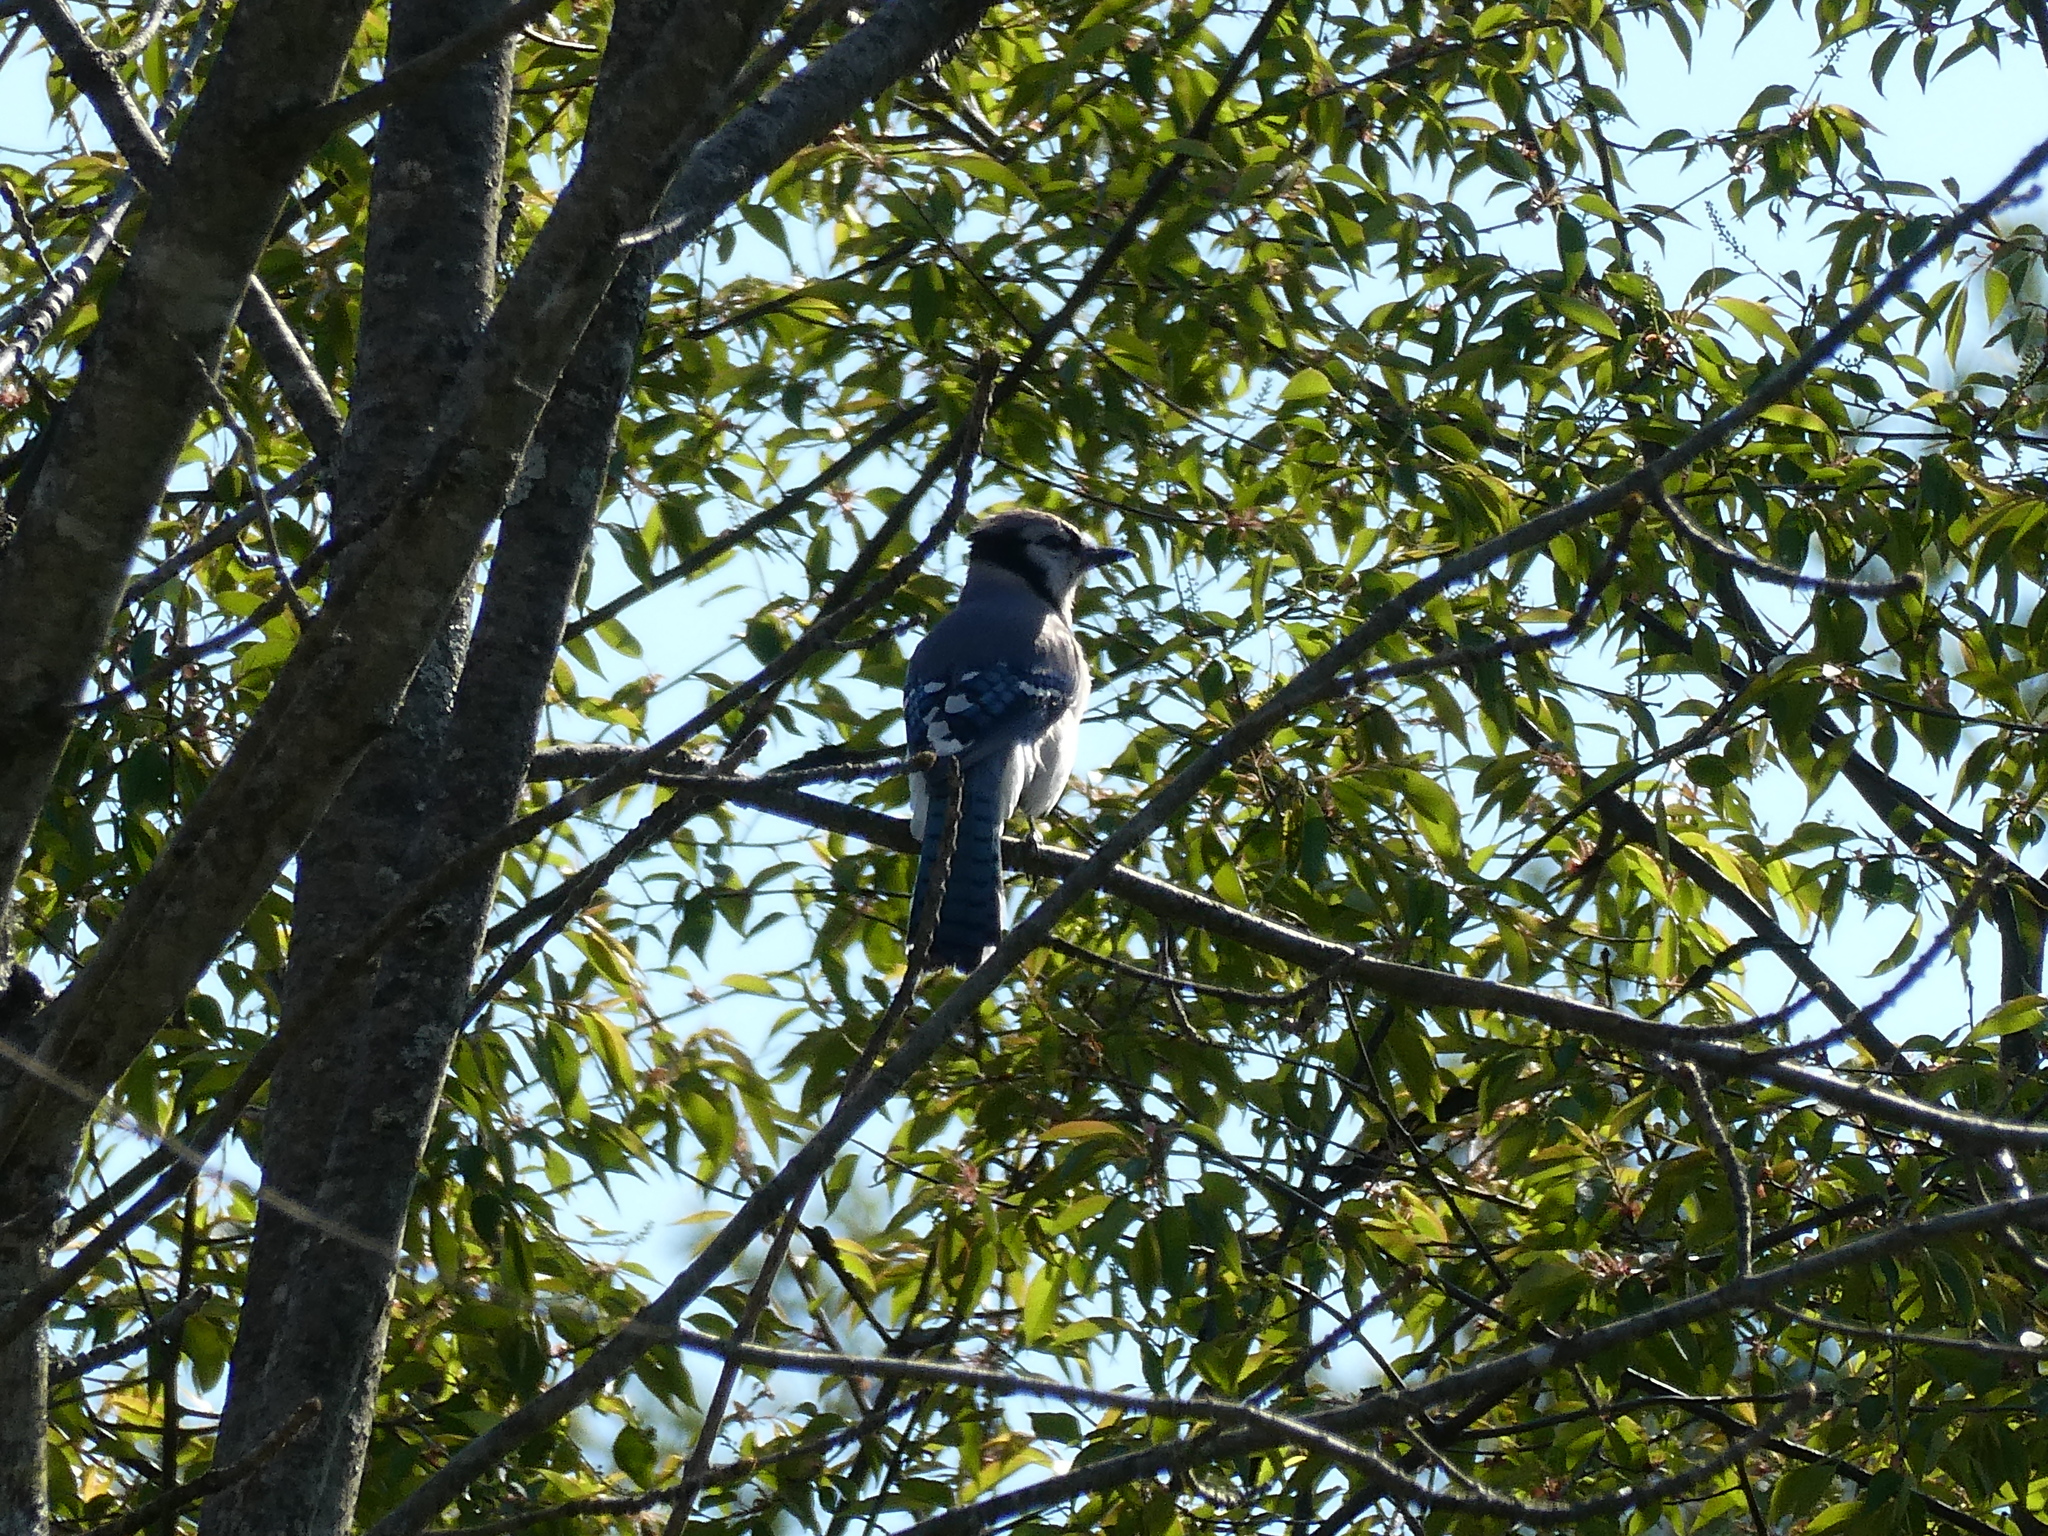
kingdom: Animalia
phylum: Chordata
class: Aves
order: Passeriformes
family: Corvidae
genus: Cyanocitta
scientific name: Cyanocitta cristata
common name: Blue jay
